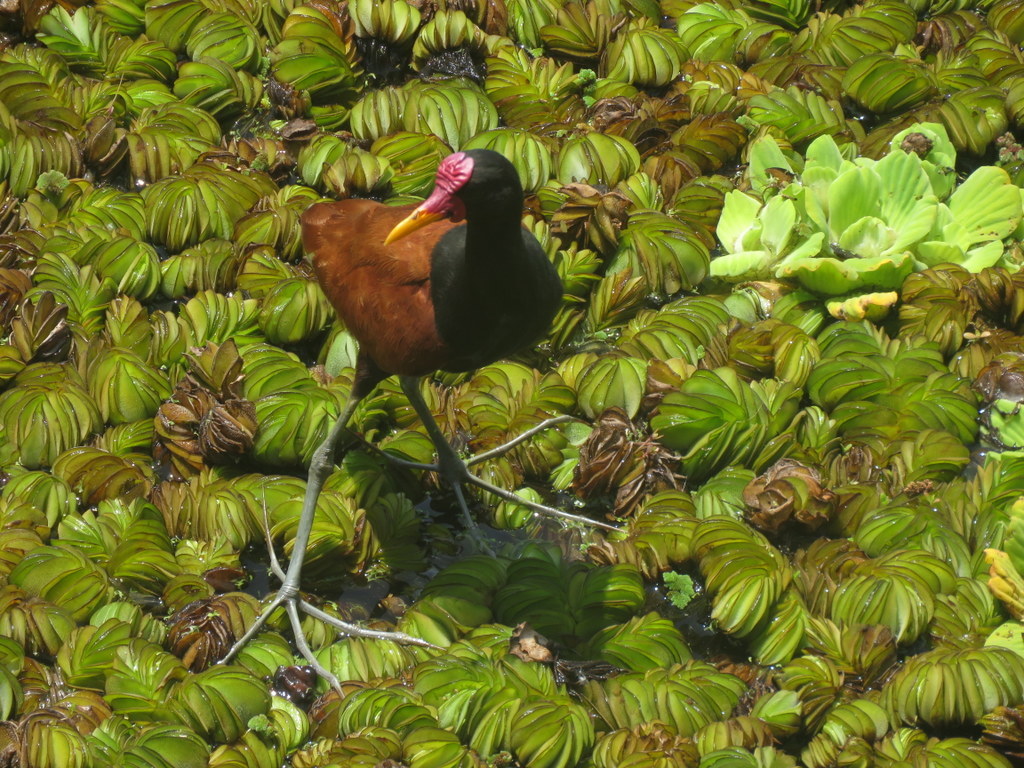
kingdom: Animalia
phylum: Chordata
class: Aves
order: Charadriiformes
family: Jacanidae
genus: Jacana
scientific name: Jacana jacana
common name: Wattled jacana
